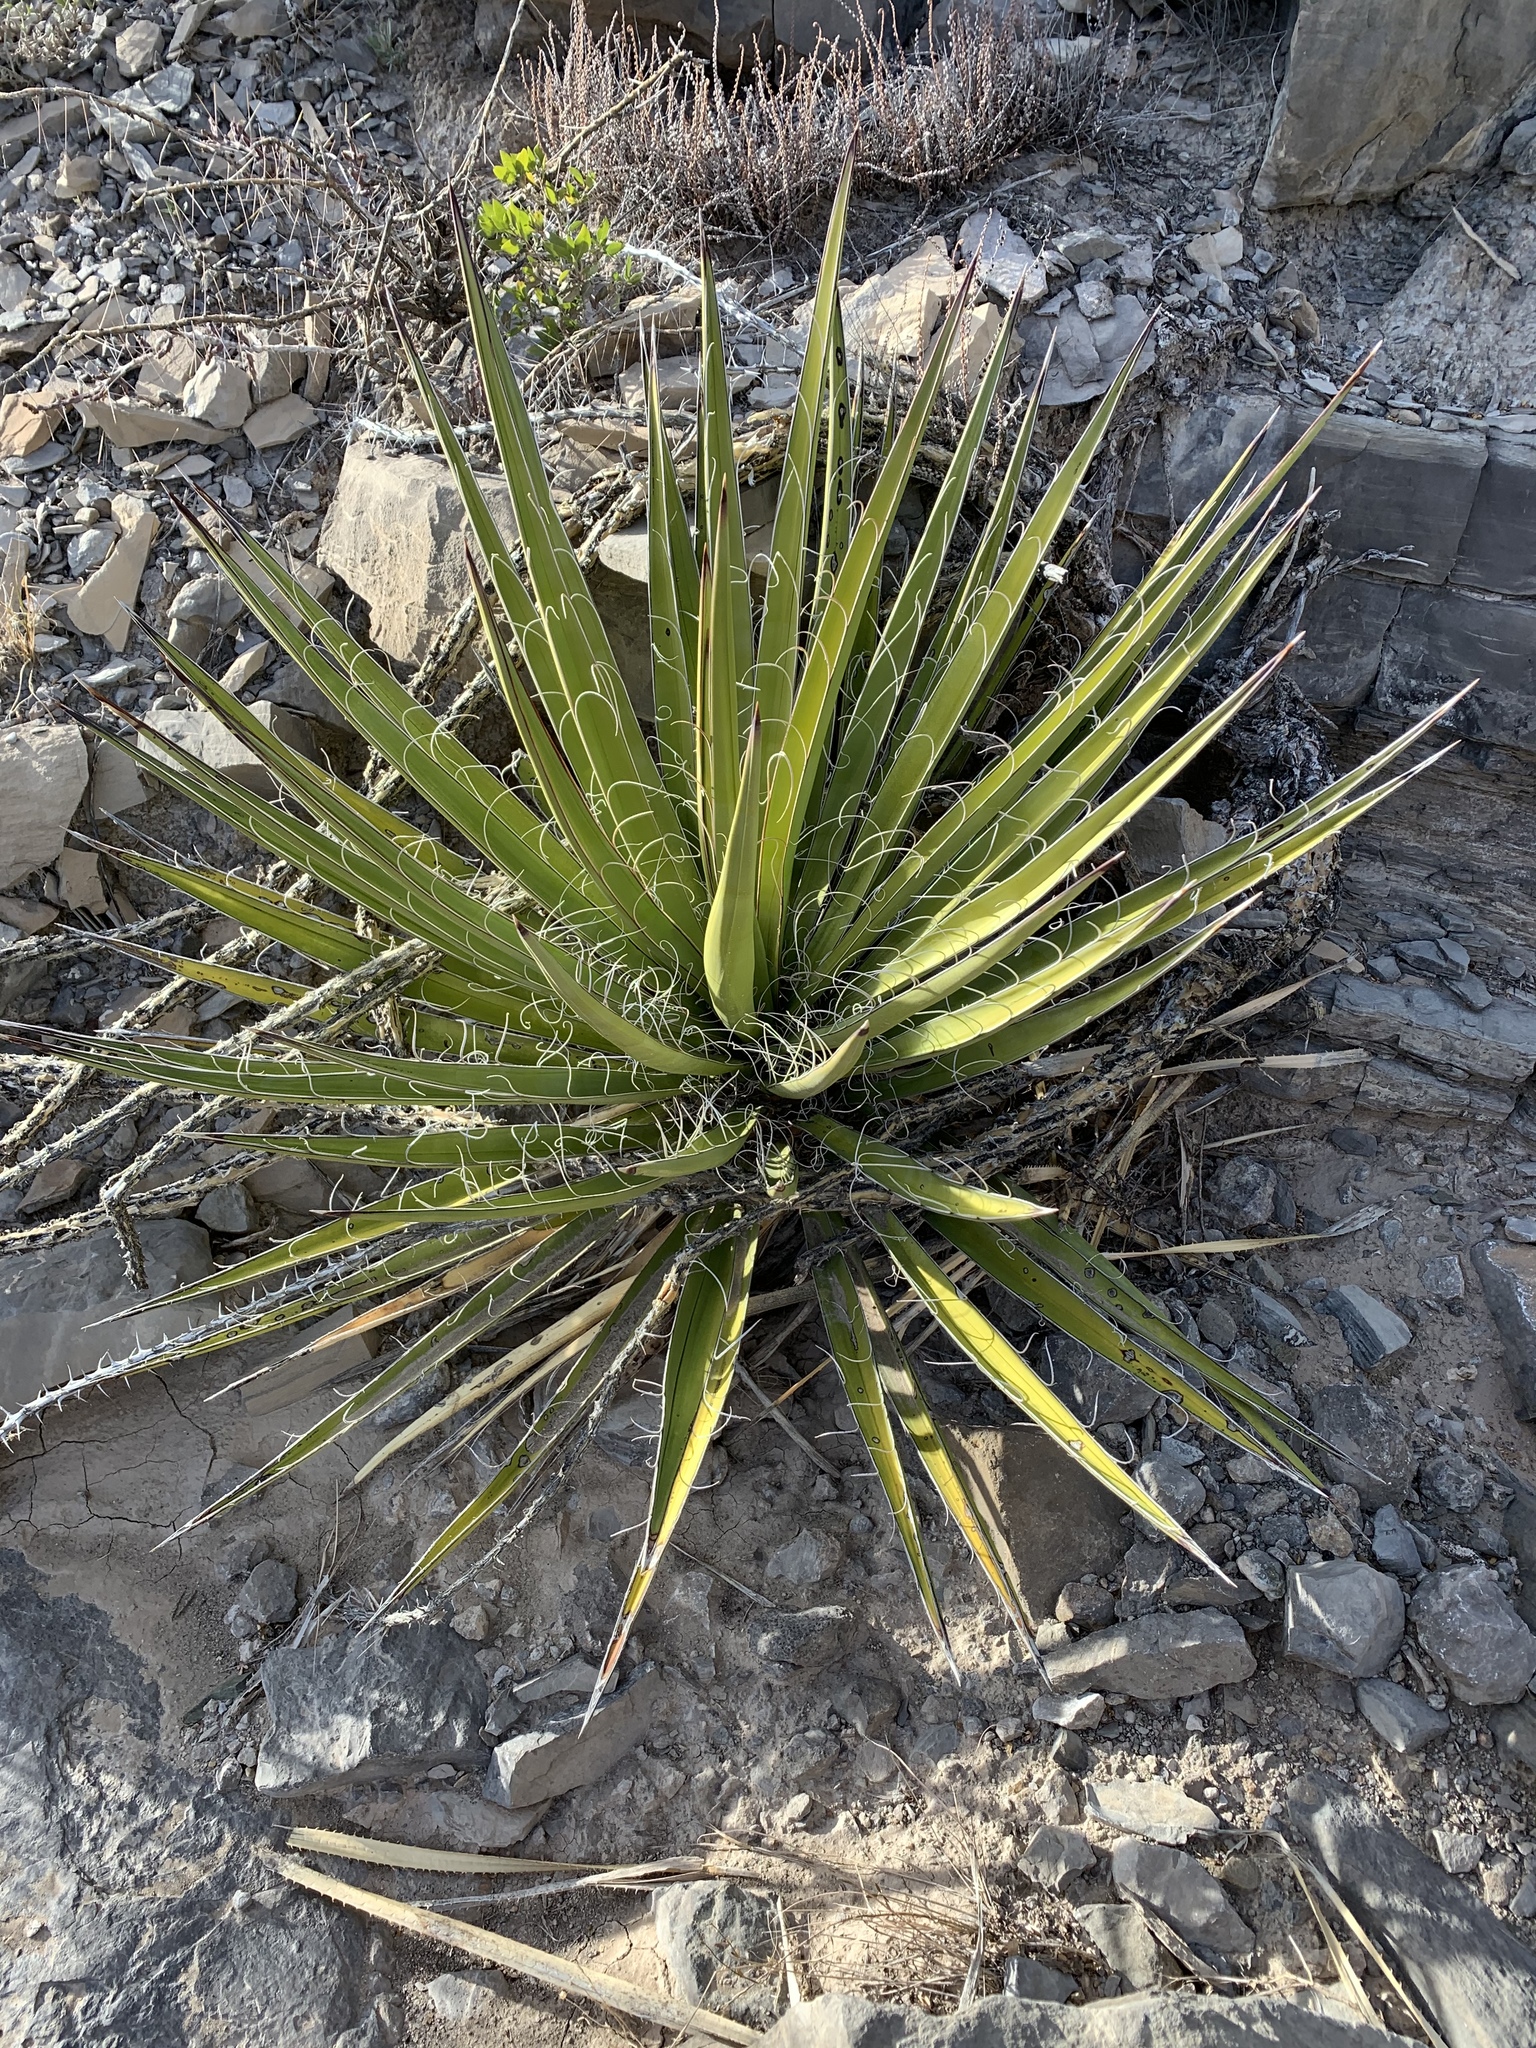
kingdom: Plantae
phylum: Tracheophyta
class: Liliopsida
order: Asparagales
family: Asparagaceae
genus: Yucca
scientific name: Yucca treculiana
